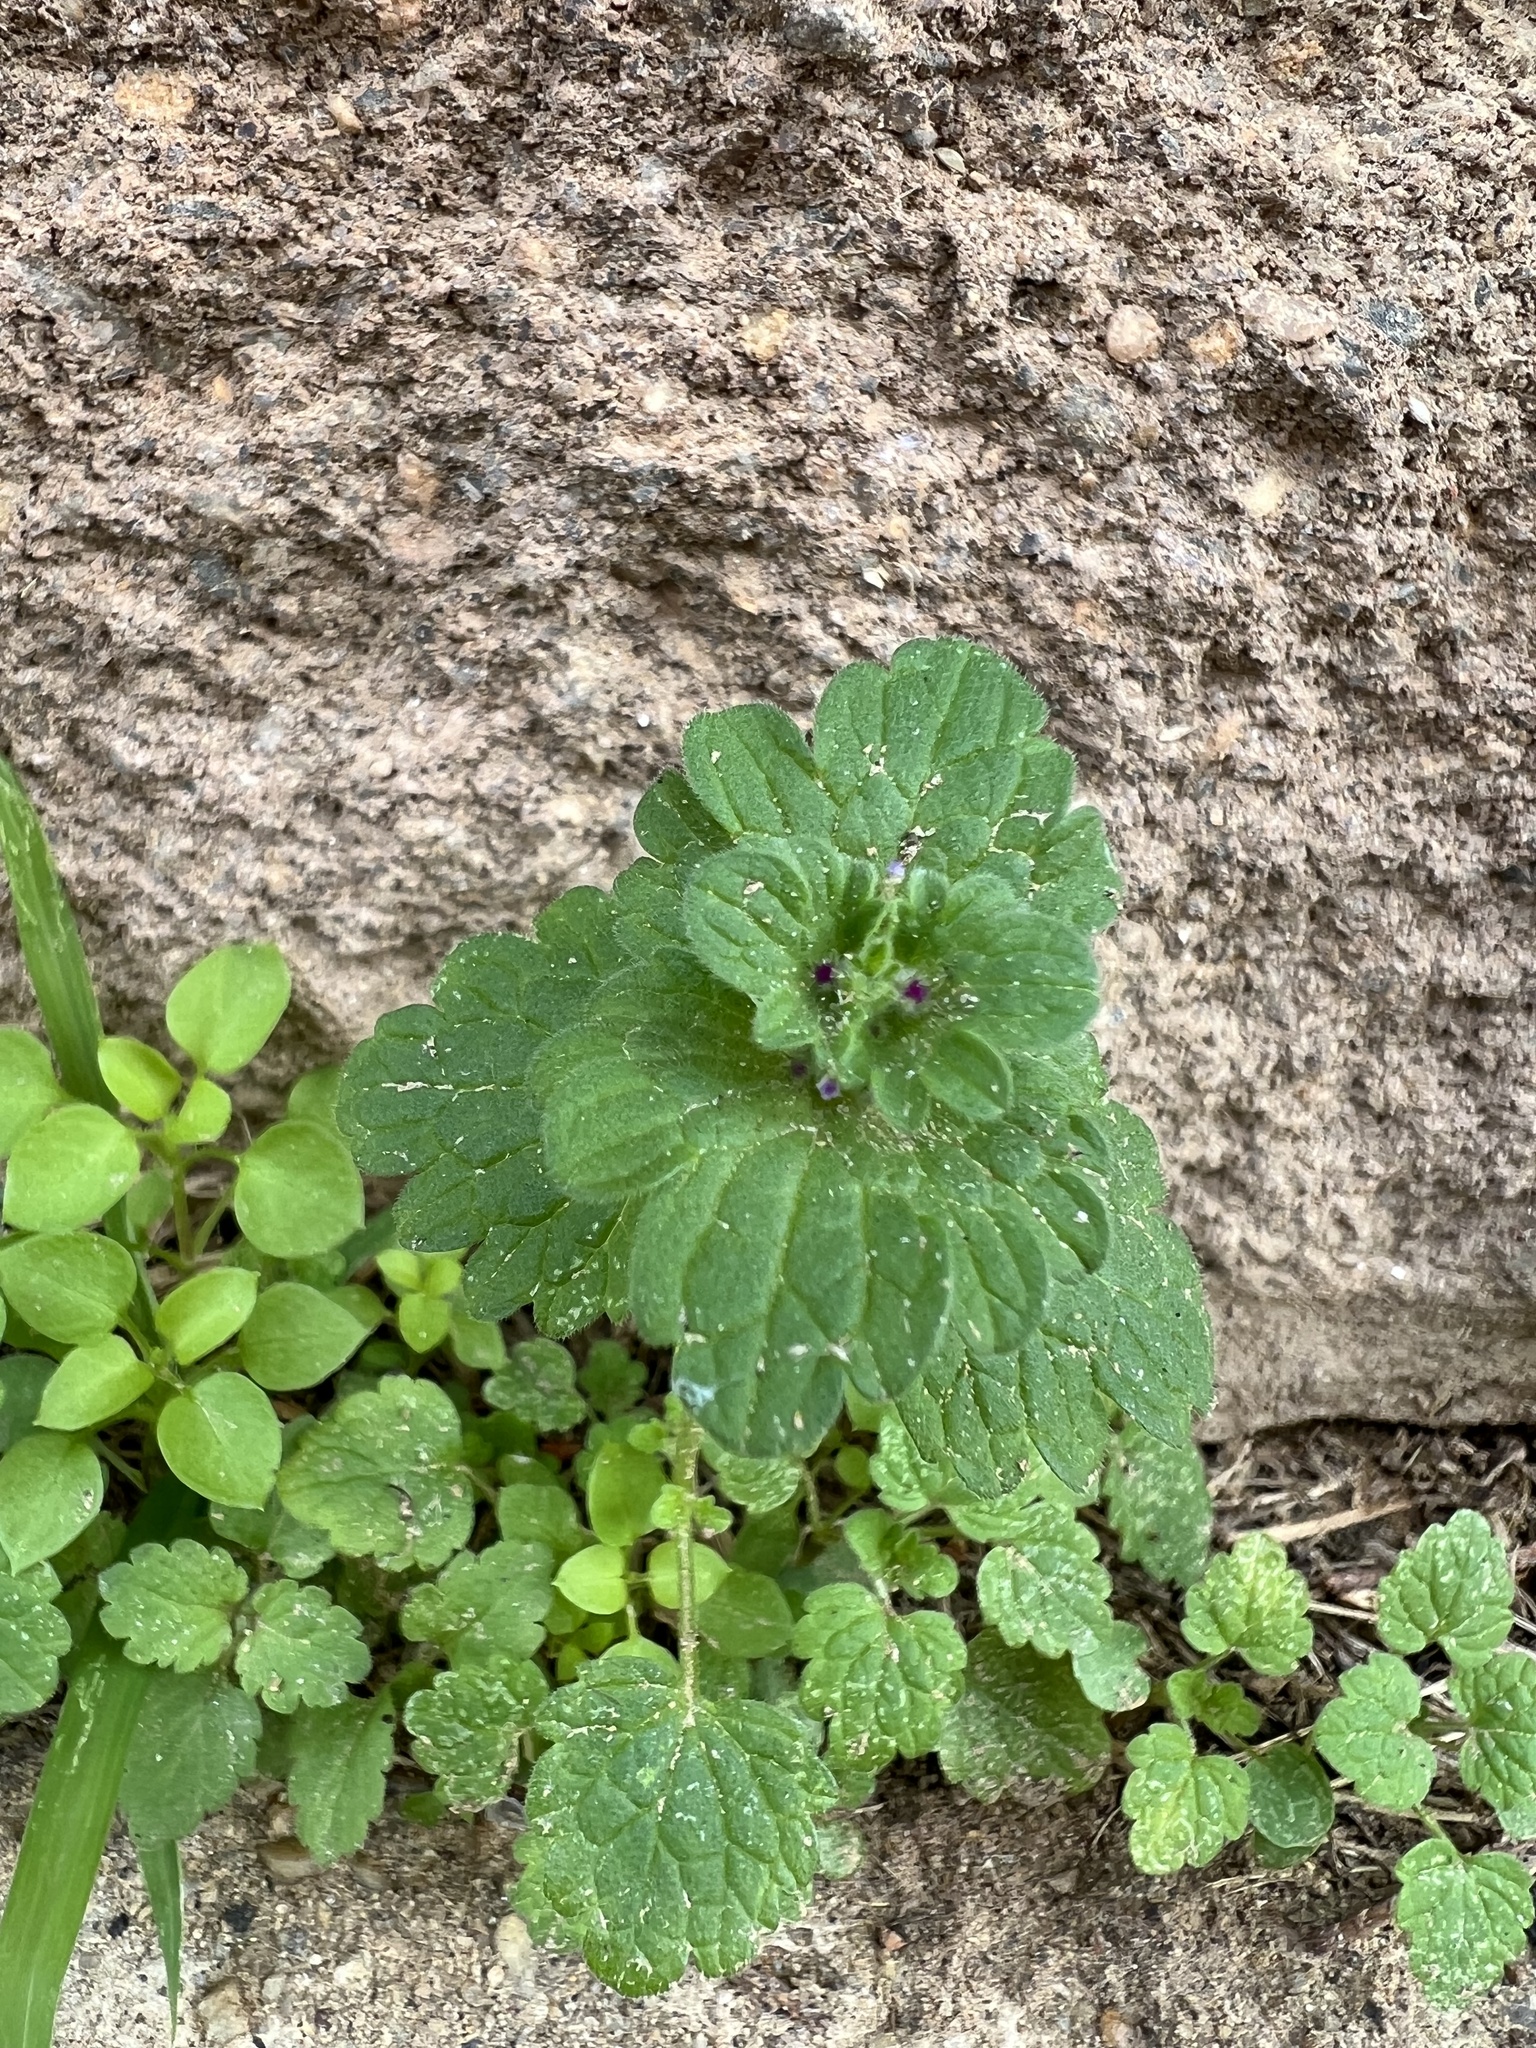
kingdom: Plantae
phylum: Tracheophyta
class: Magnoliopsida
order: Lamiales
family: Lamiaceae
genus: Lamium
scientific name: Lamium amplexicaule
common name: Henbit dead-nettle
